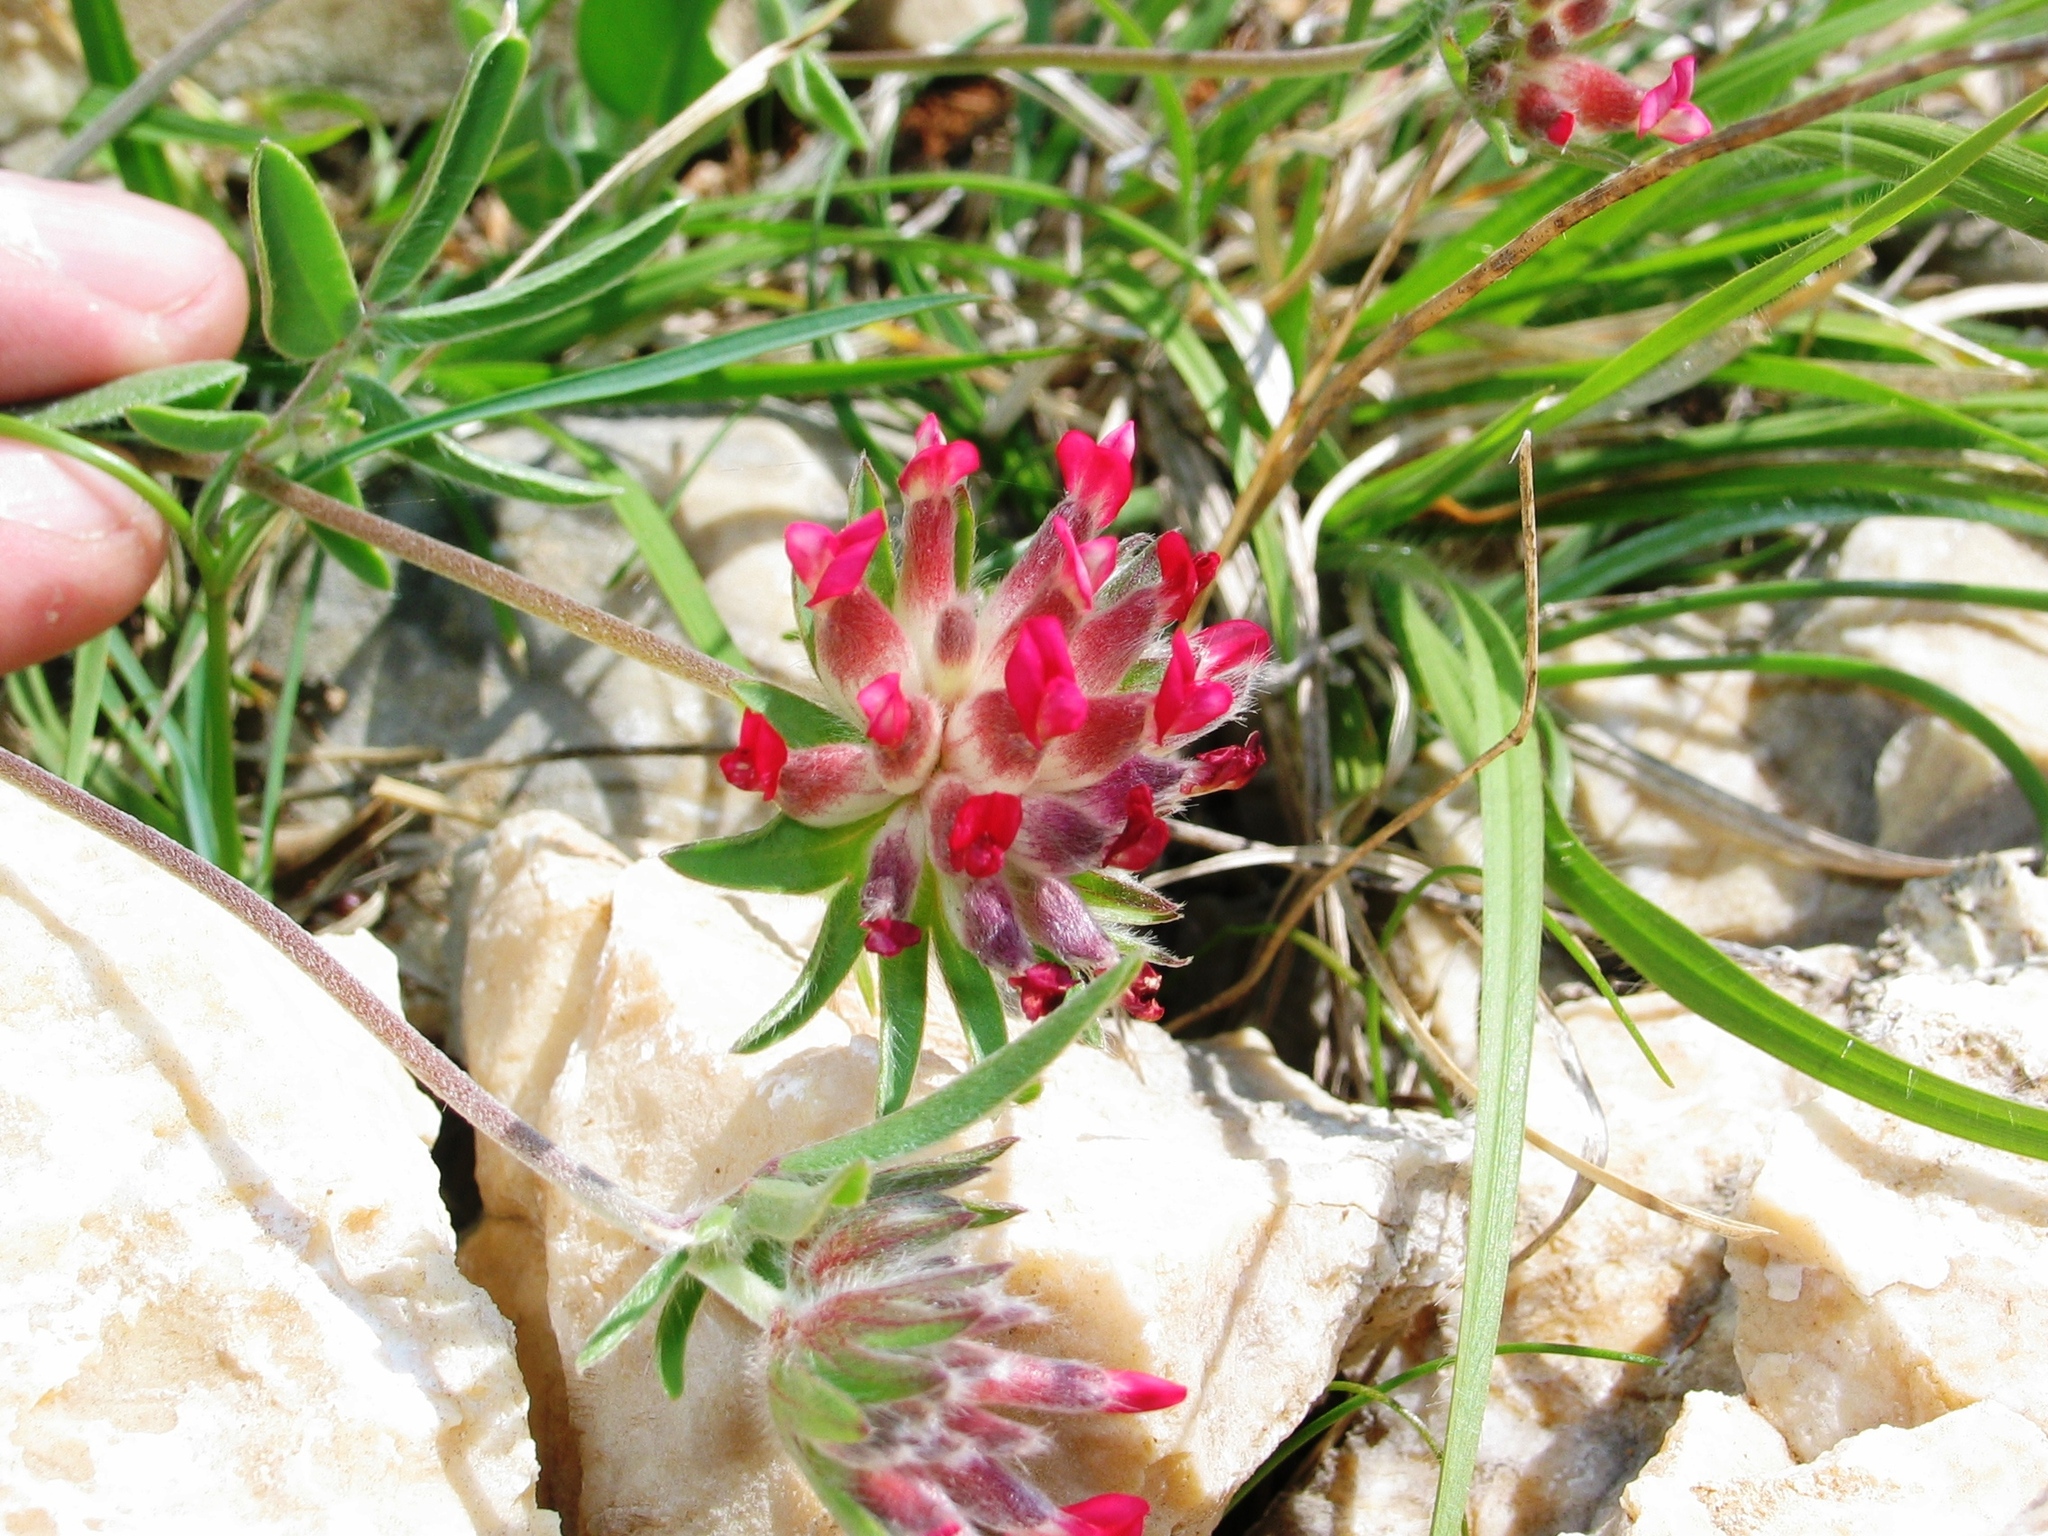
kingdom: Plantae
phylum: Tracheophyta
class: Magnoliopsida
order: Fabales
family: Fabaceae
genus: Anthyllis
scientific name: Anthyllis vulneraria
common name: Kidney vetch
